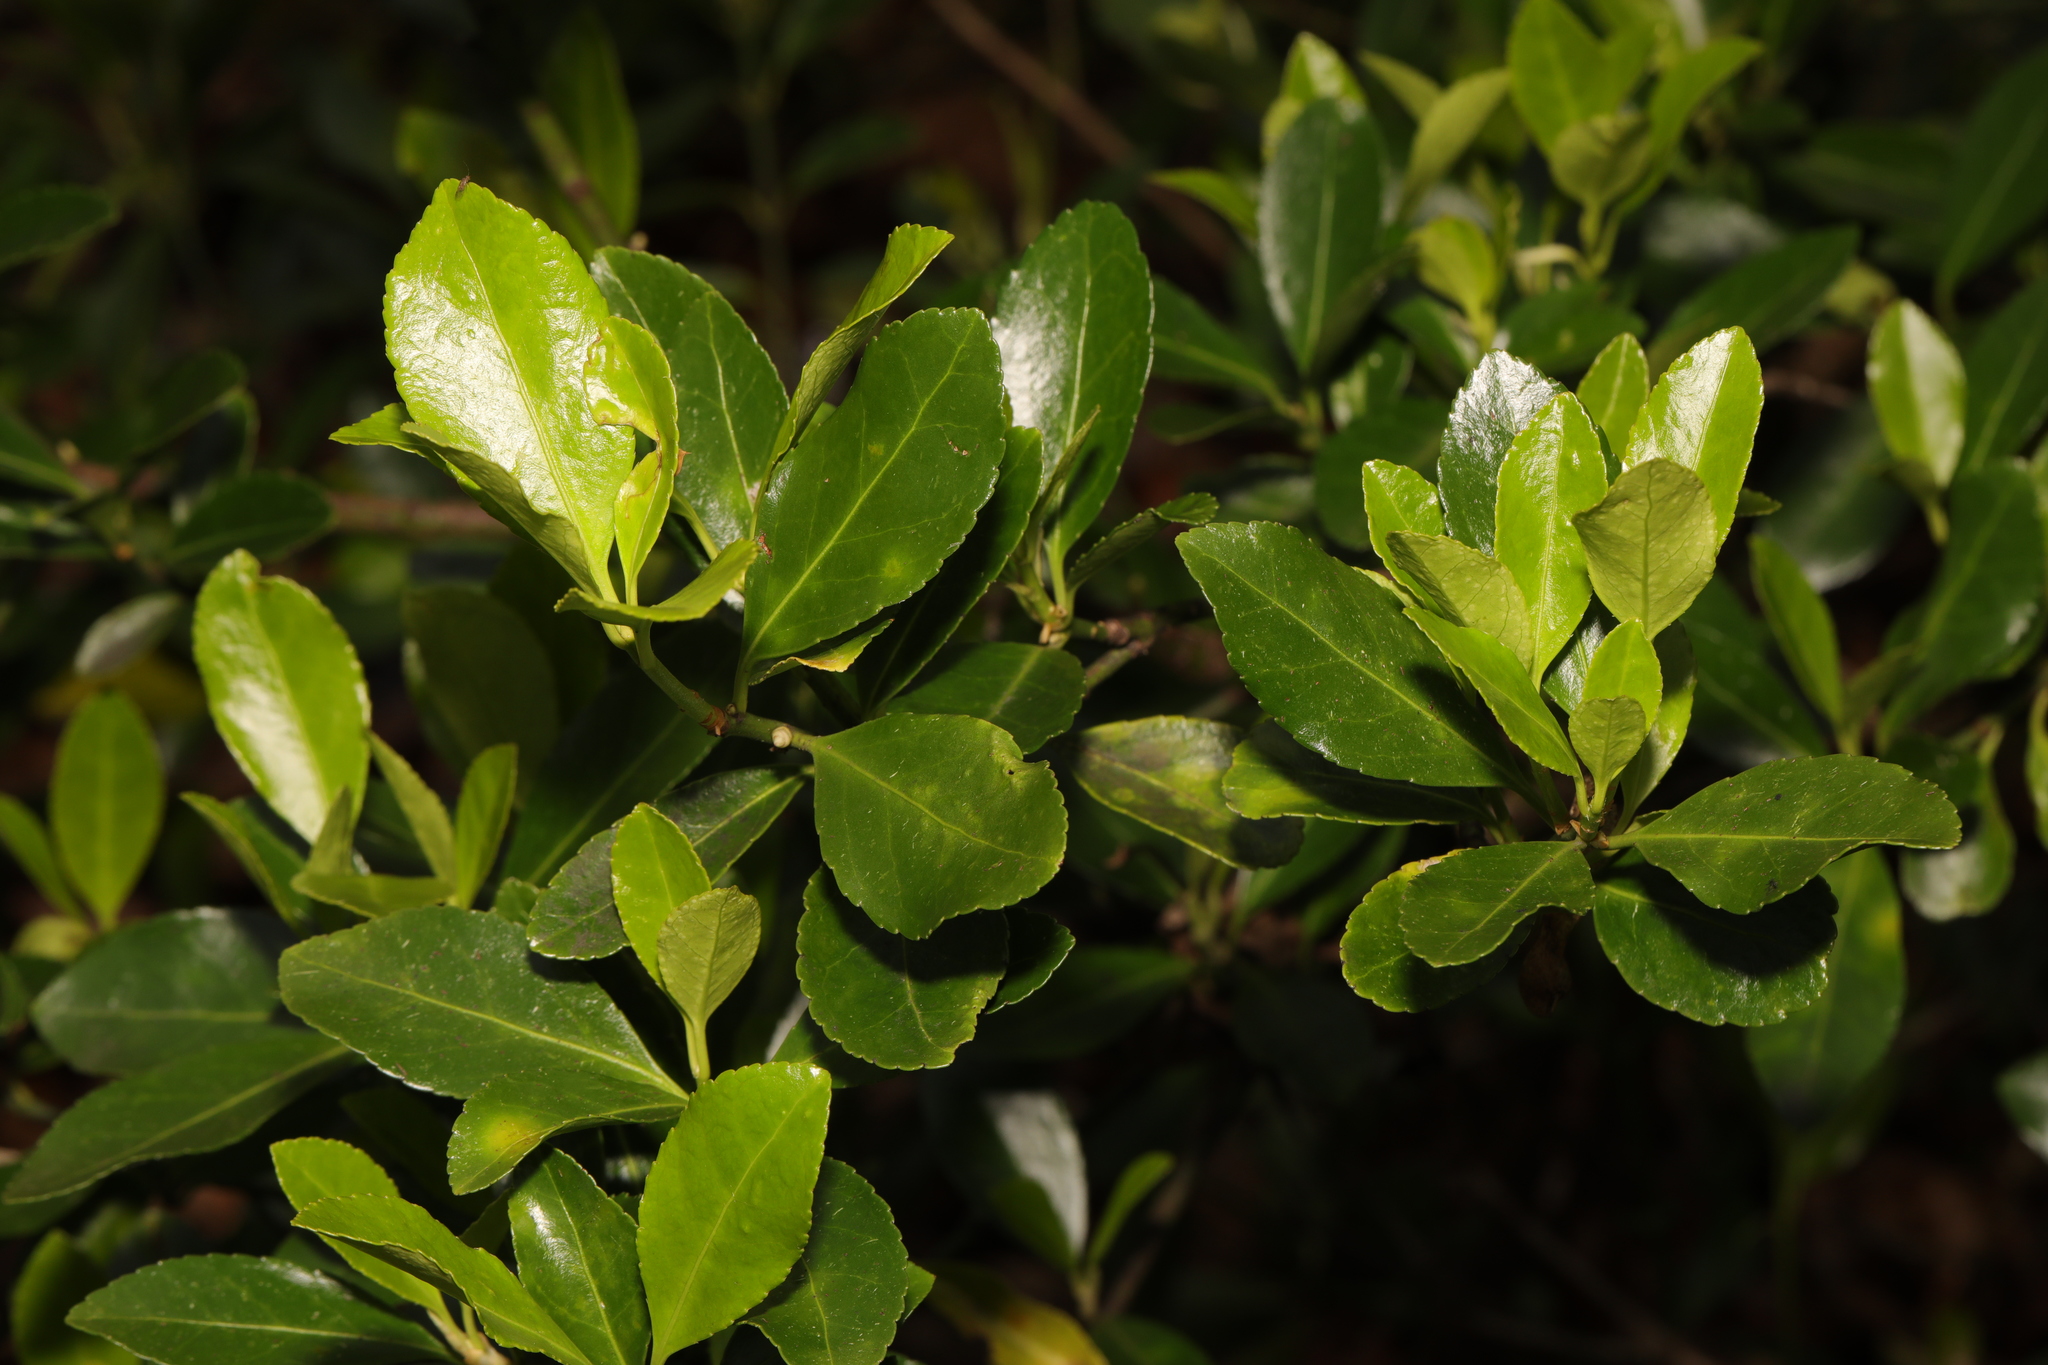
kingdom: Plantae
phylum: Tracheophyta
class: Magnoliopsida
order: Celastrales
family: Celastraceae
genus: Euonymus
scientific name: Euonymus japonicus
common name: Japanese spindletree
